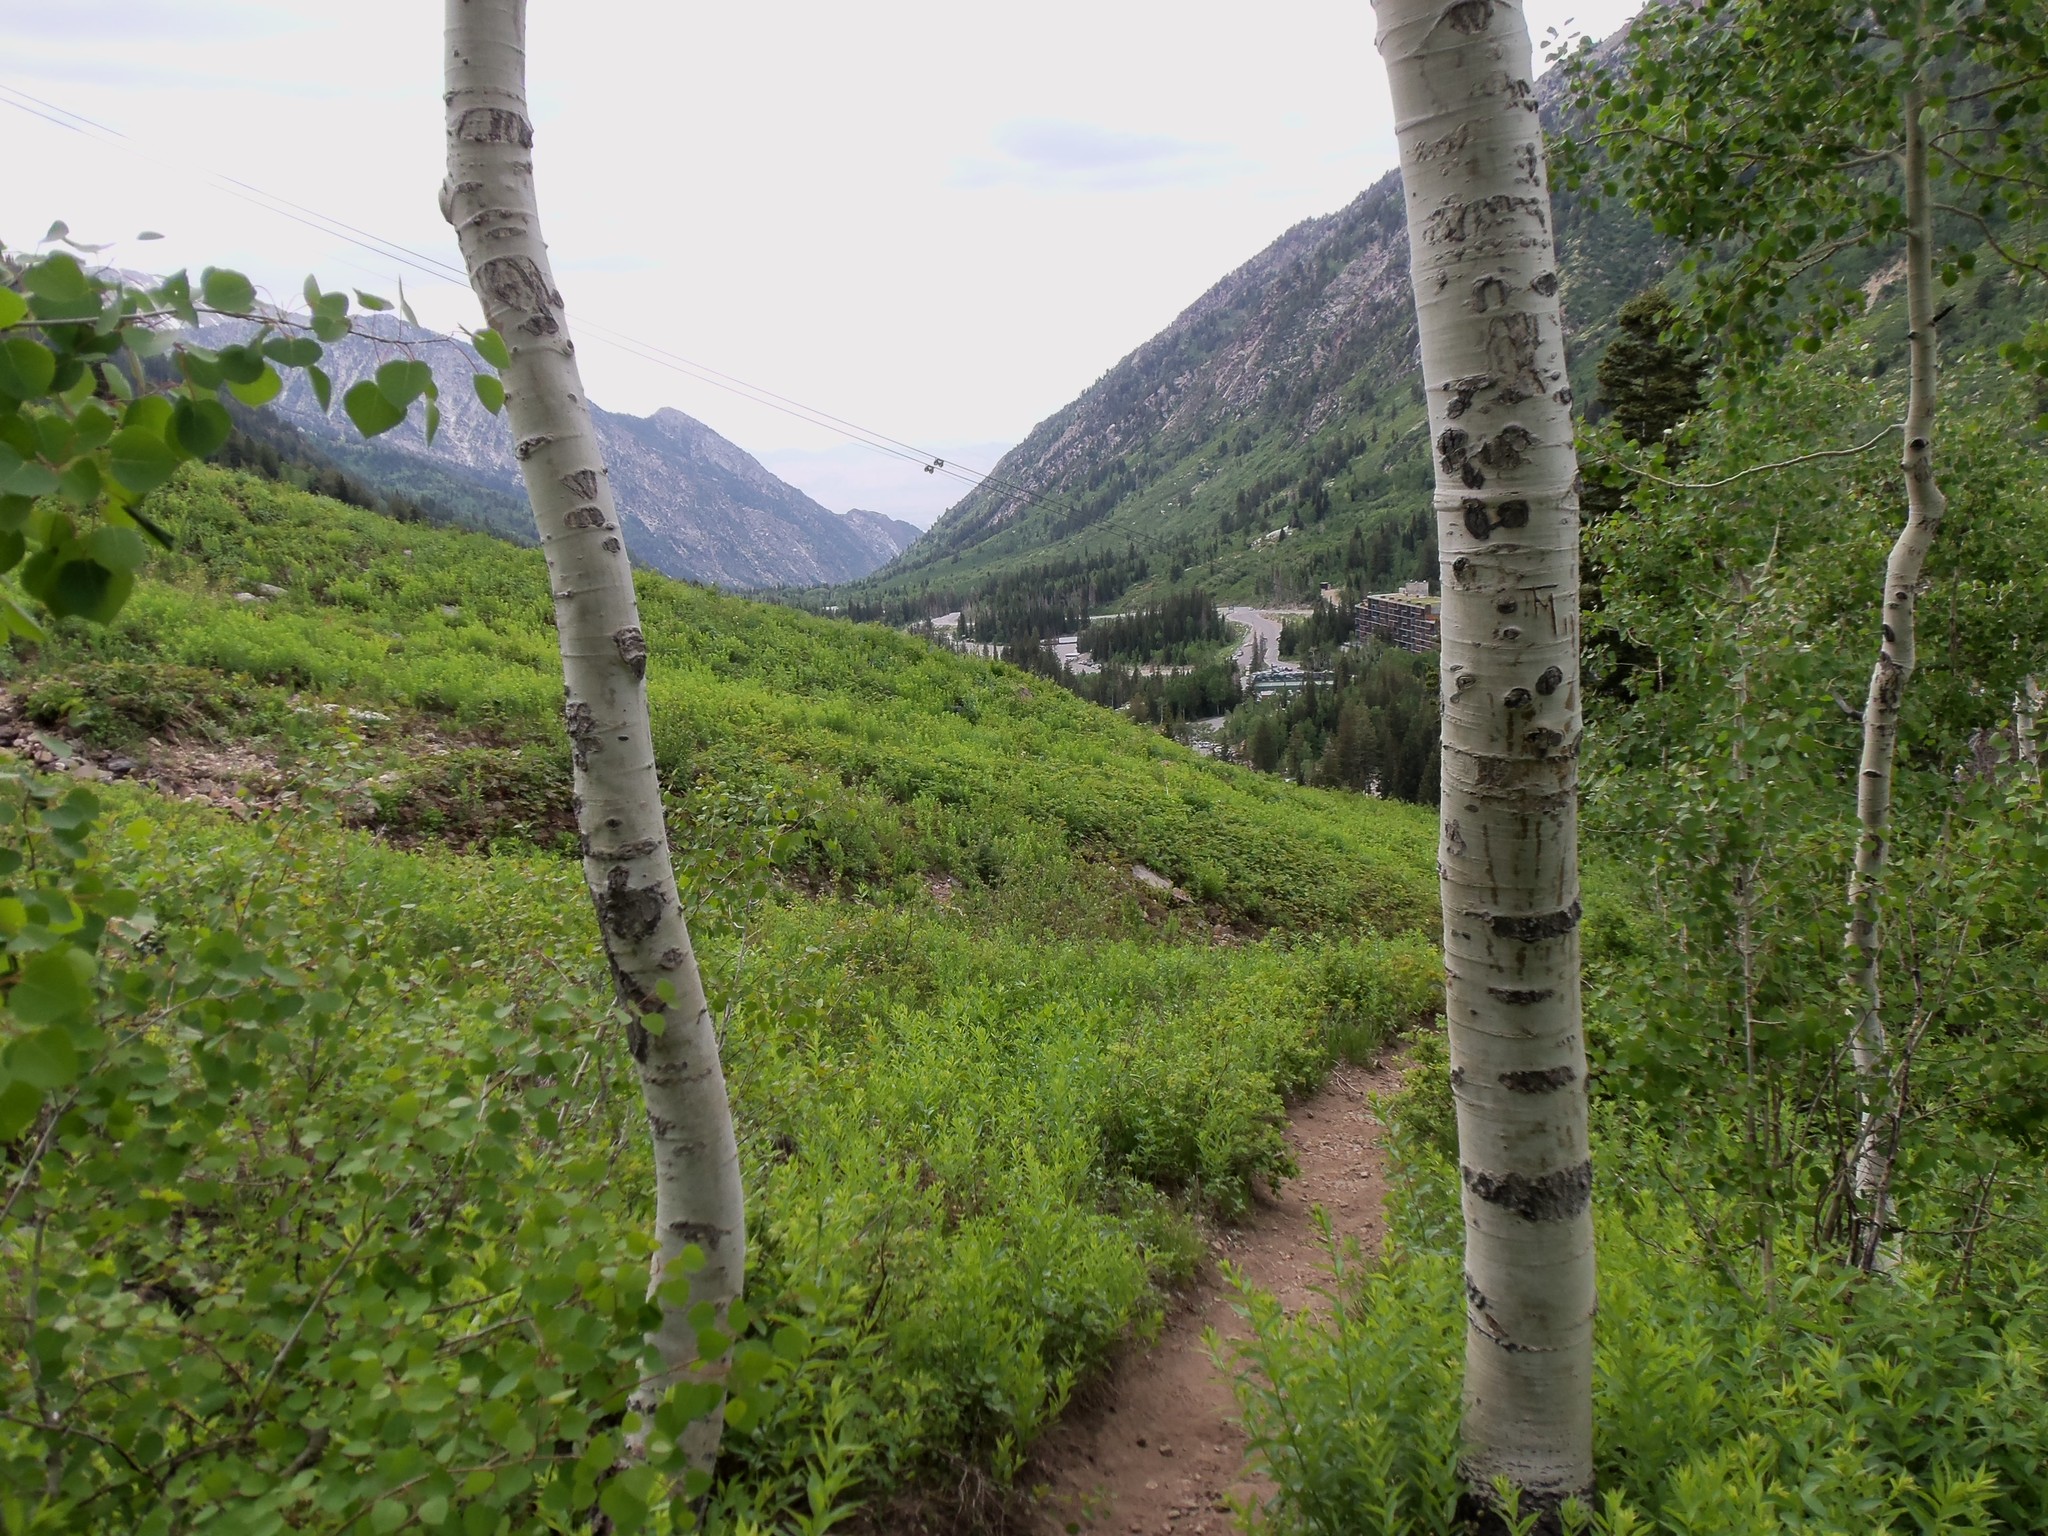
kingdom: Plantae
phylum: Tracheophyta
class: Magnoliopsida
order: Malpighiales
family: Salicaceae
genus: Populus
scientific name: Populus tremuloides
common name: Quaking aspen
